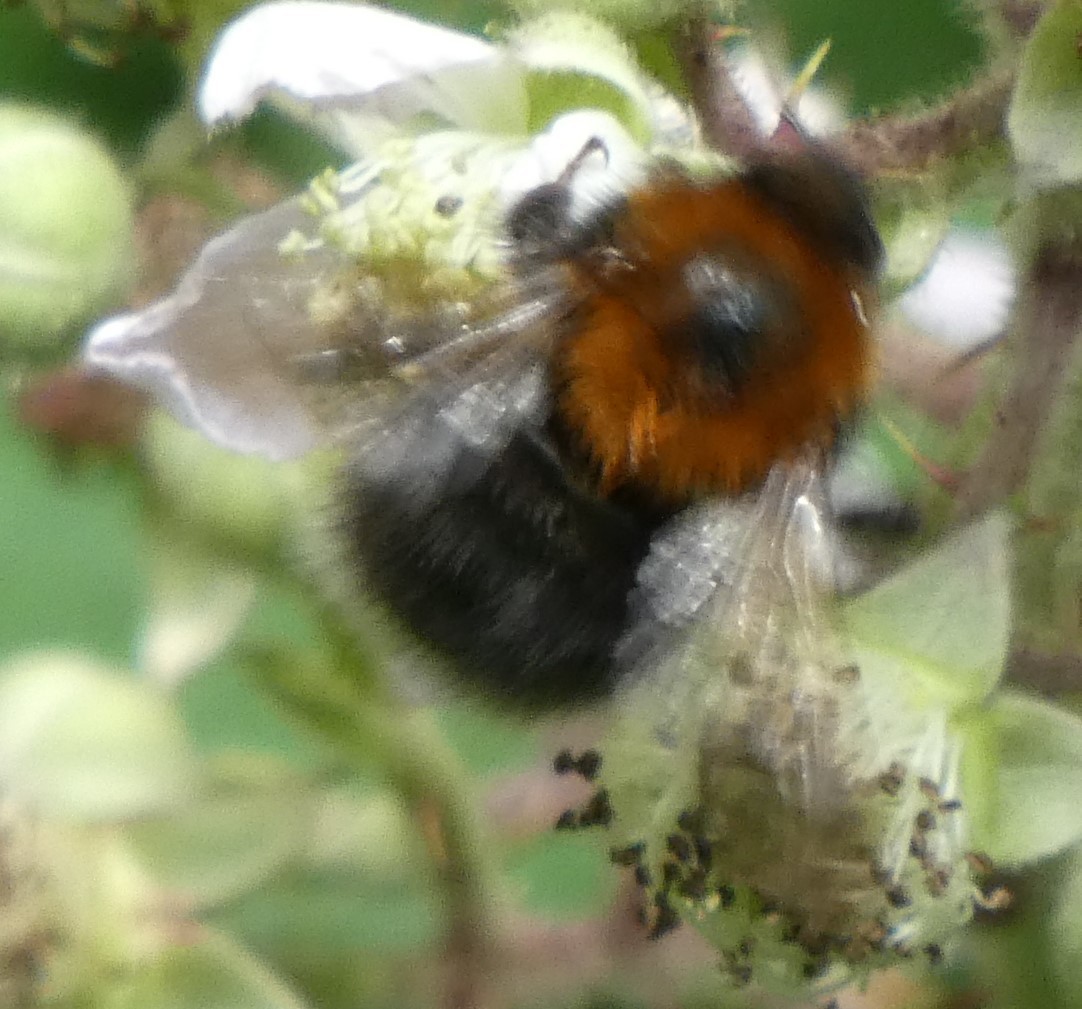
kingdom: Animalia
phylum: Arthropoda
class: Insecta
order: Hymenoptera
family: Apidae
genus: Bombus
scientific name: Bombus hypnorum
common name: New garden bumblebee
